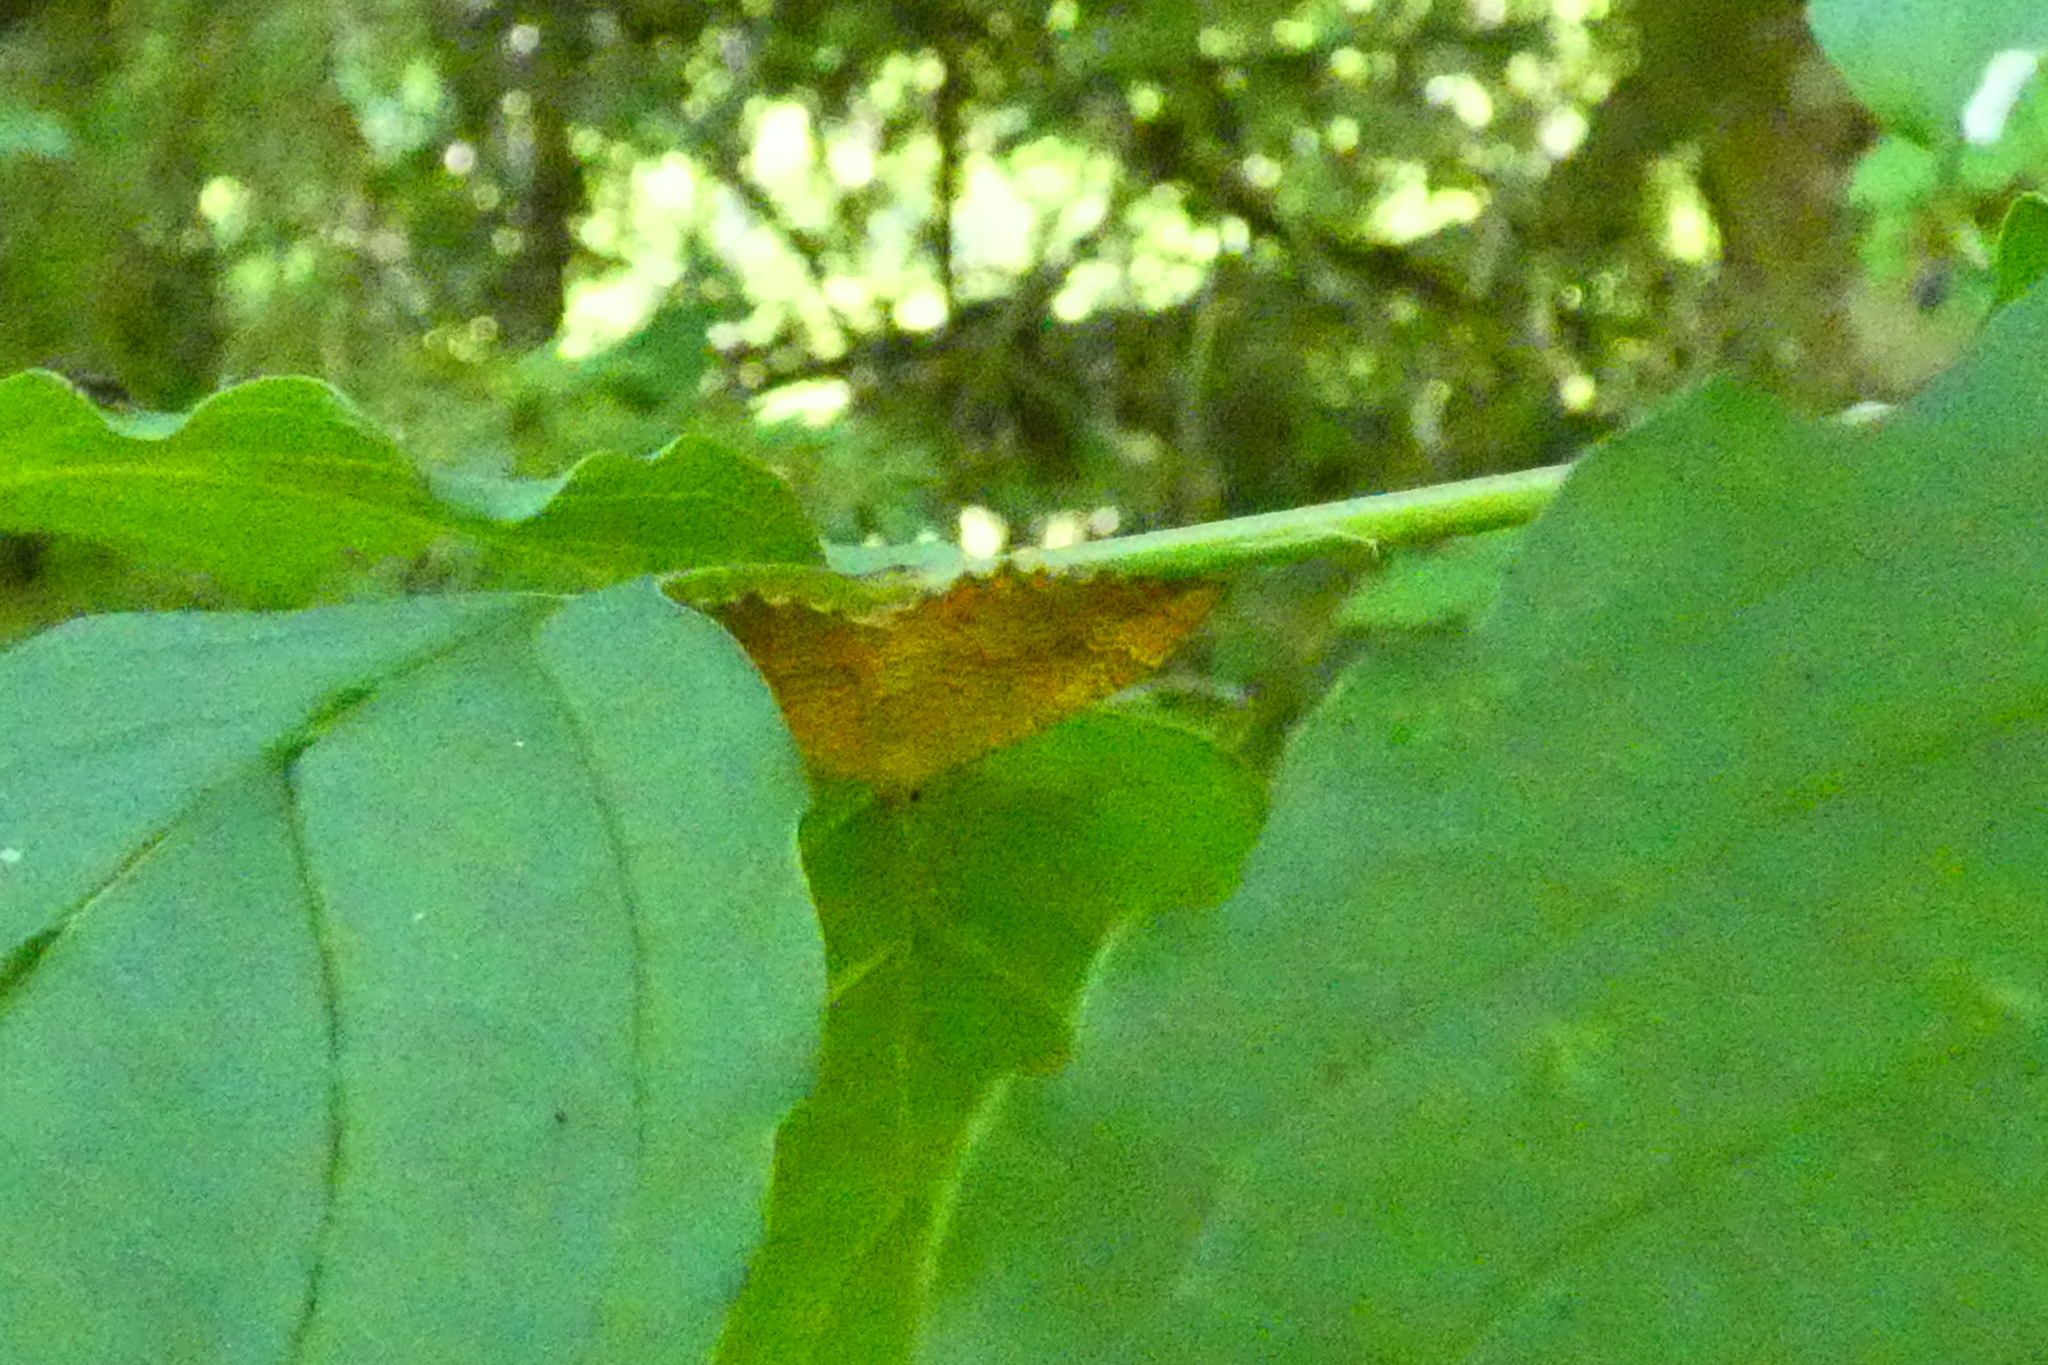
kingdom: Animalia
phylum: Arthropoda
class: Insecta
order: Lepidoptera
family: Geometridae
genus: Camptogramma
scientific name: Camptogramma bilineata
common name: Yellow shell
